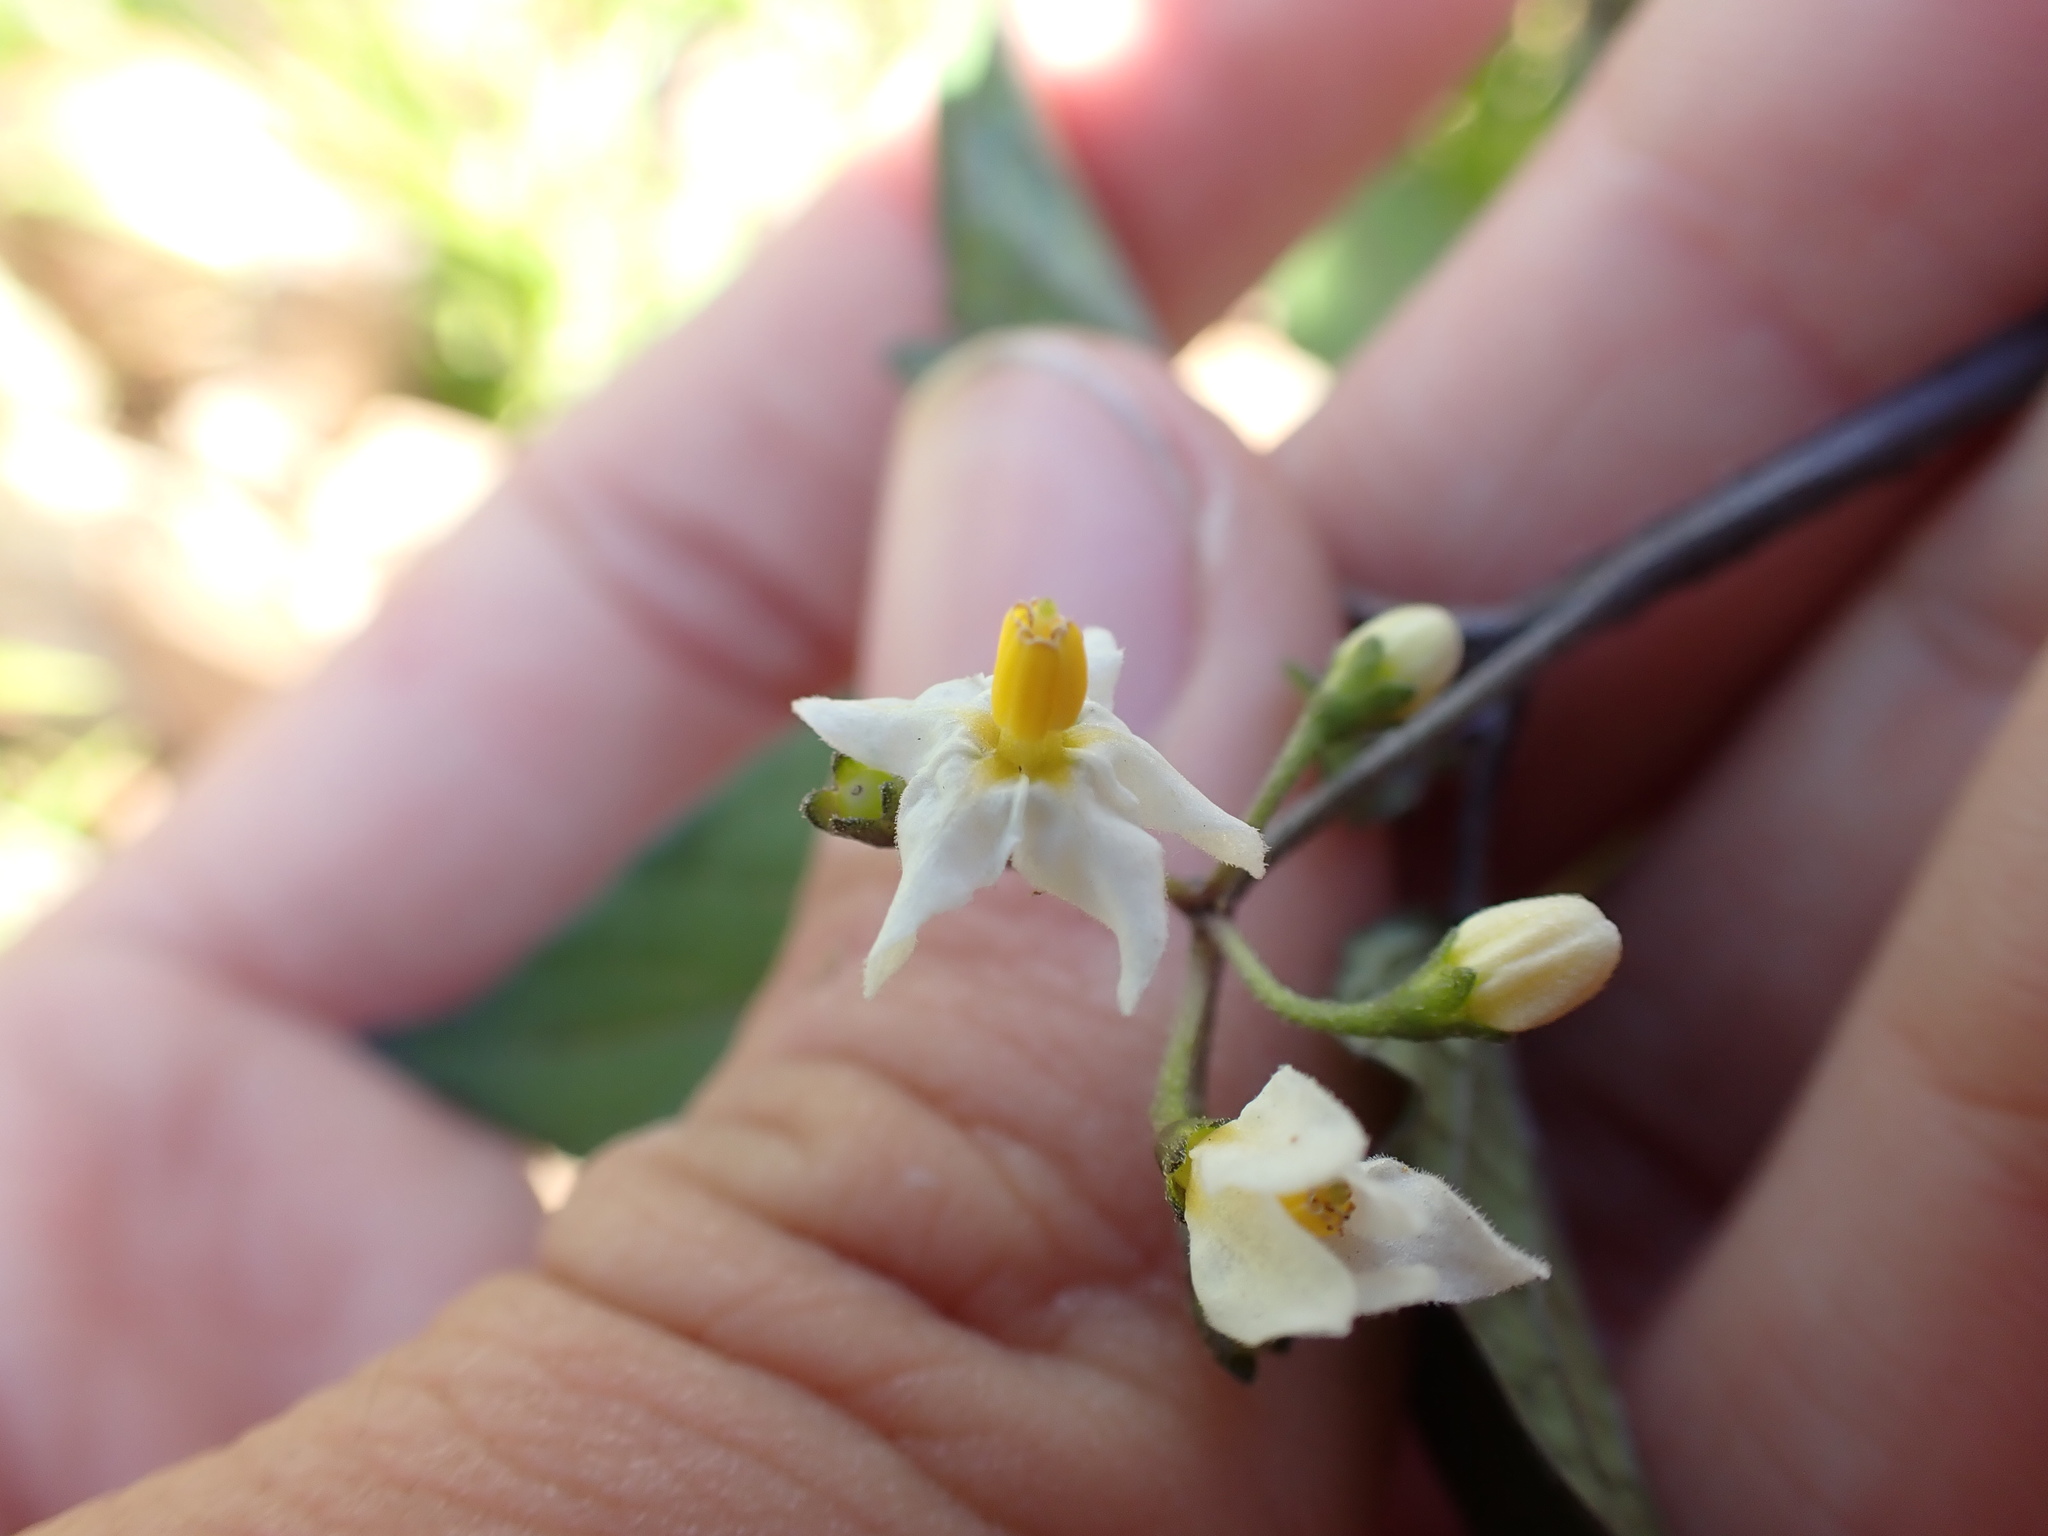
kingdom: Plantae
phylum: Tracheophyta
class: Magnoliopsida
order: Solanales
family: Solanaceae
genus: Solanum
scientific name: Solanum nigrum
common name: Black nightshade
